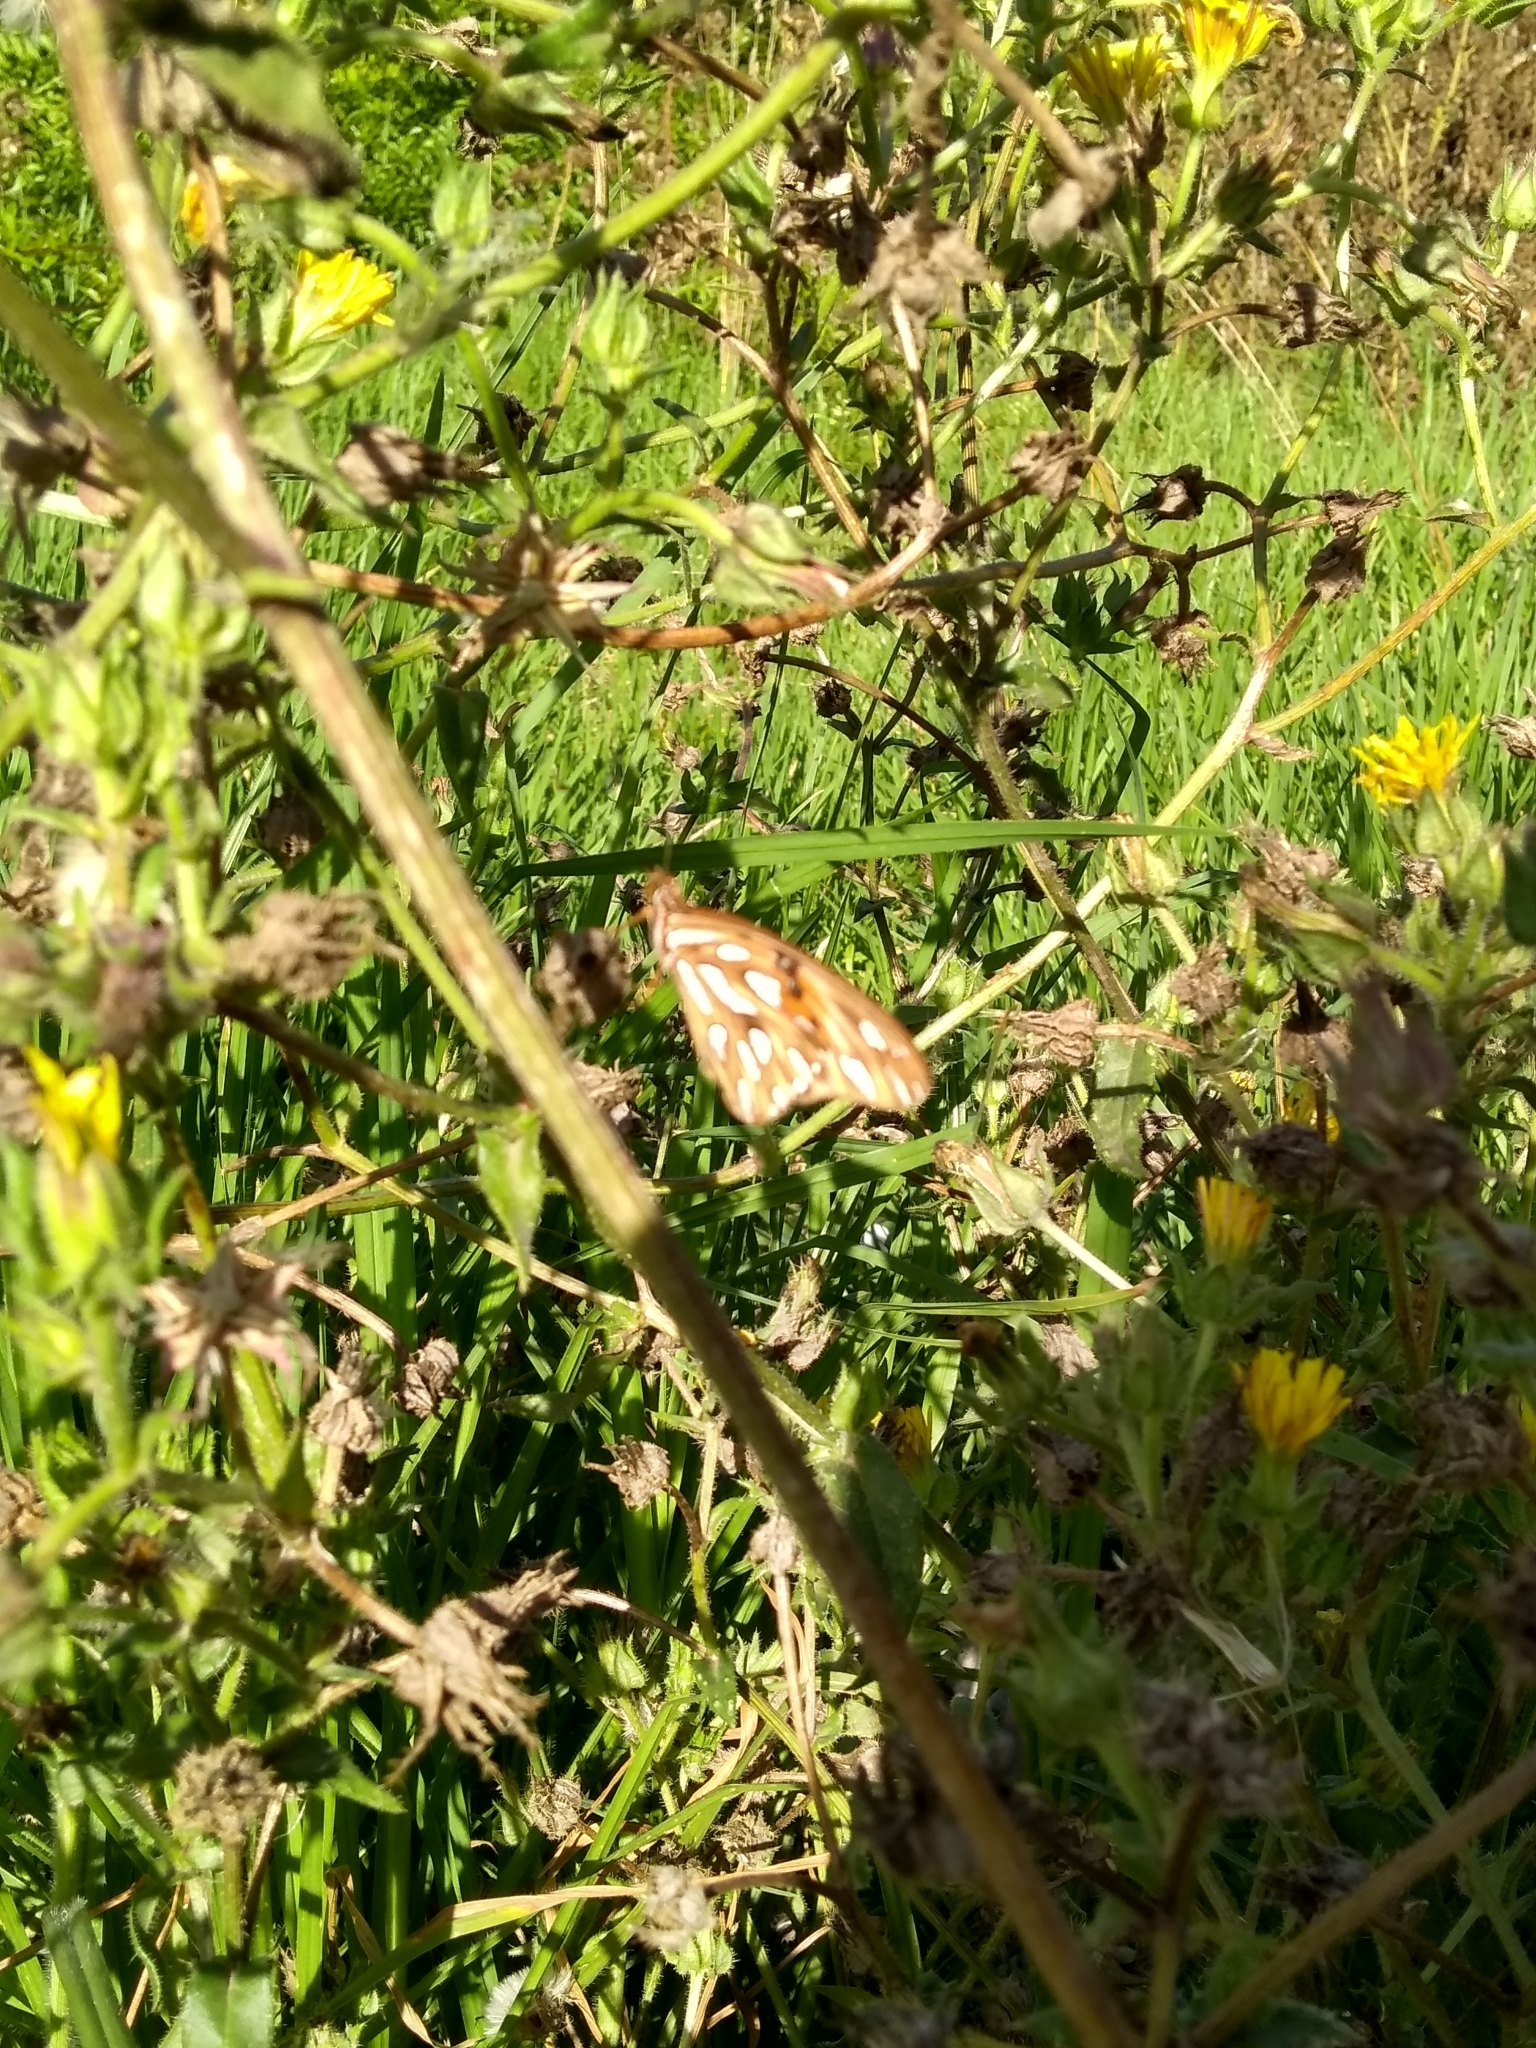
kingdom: Animalia
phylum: Arthropoda
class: Insecta
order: Lepidoptera
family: Nymphalidae
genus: Dione
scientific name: Dione vanillae
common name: Gulf fritillary
